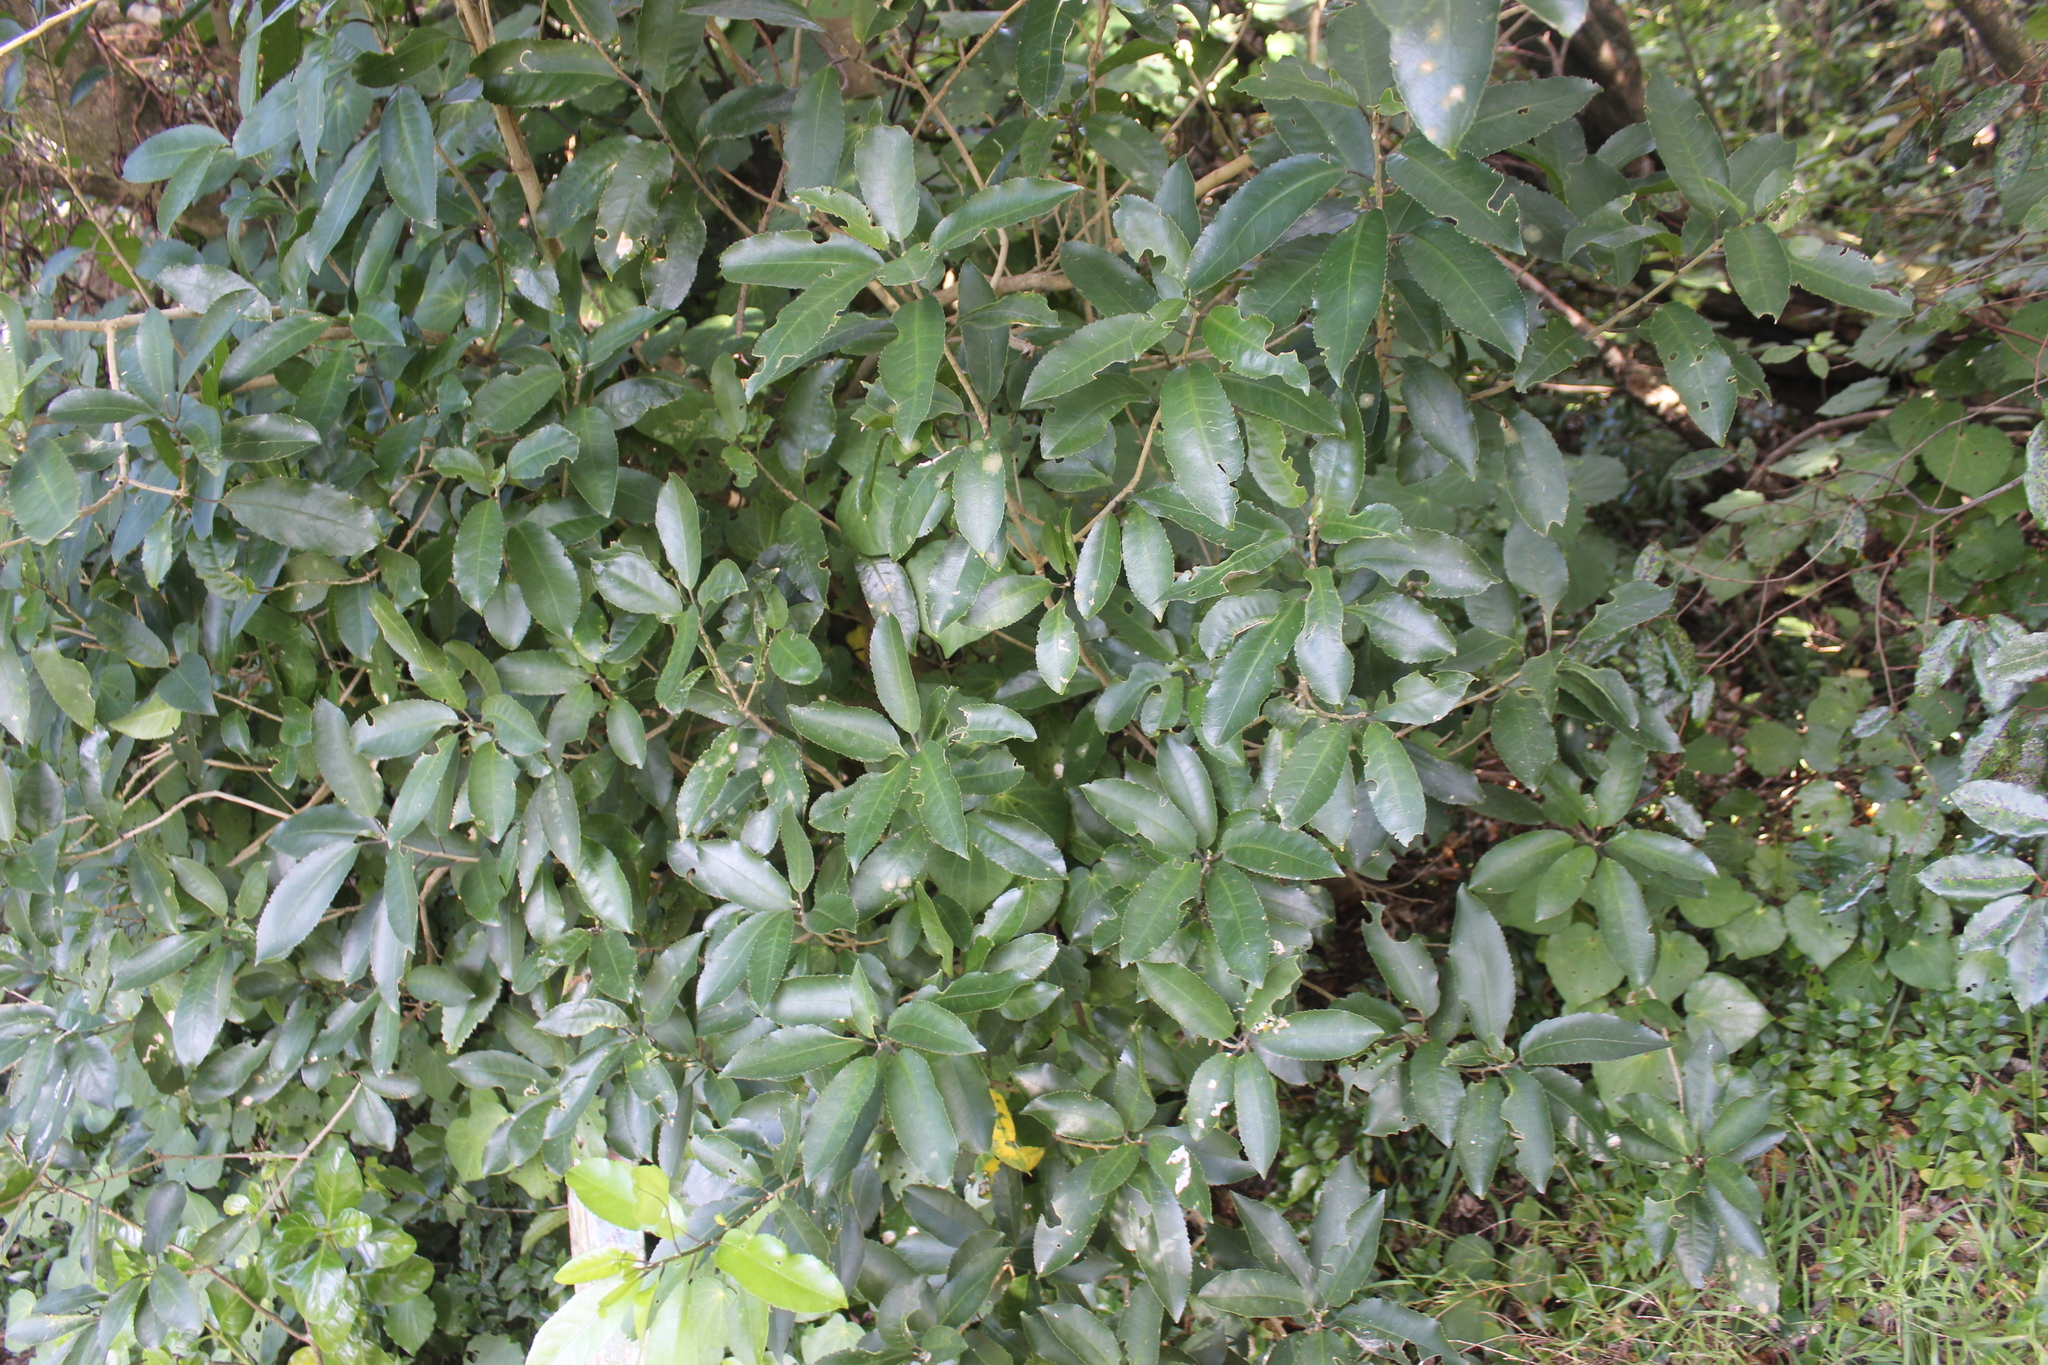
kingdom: Plantae
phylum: Tracheophyta
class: Magnoliopsida
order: Malpighiales
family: Violaceae
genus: Melicytus
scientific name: Melicytus ramiflorus
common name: Mahoe
